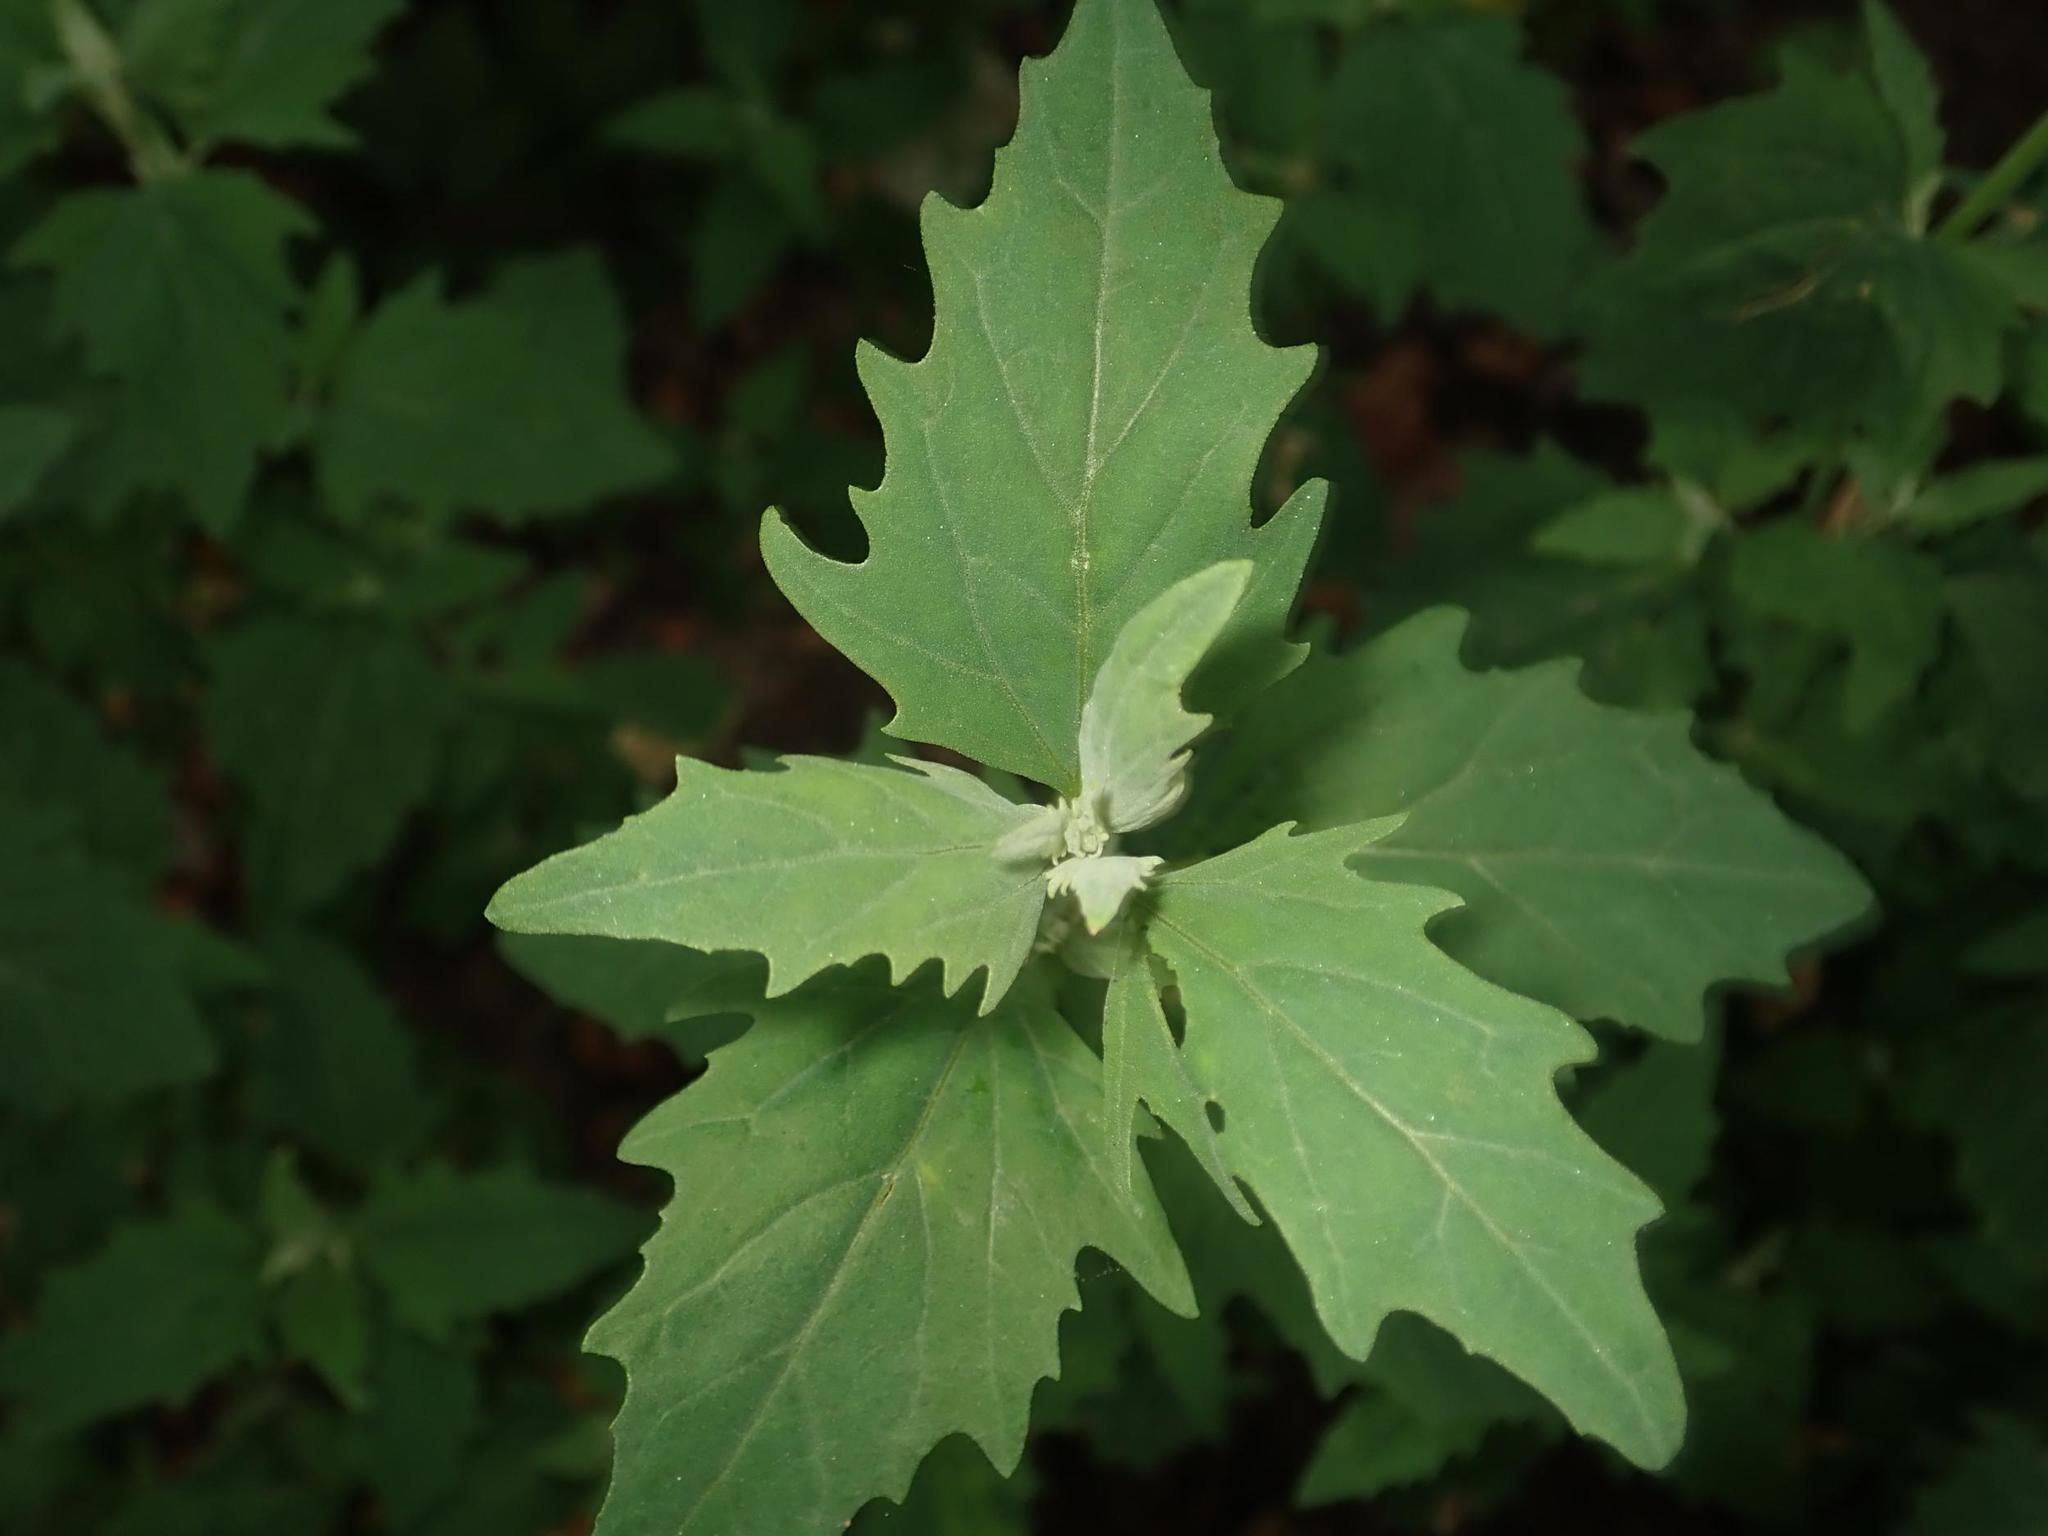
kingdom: Plantae
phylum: Tracheophyta
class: Magnoliopsida
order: Caryophyllales
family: Amaranthaceae
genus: Chenopodium
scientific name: Chenopodium album
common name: Fat-hen
